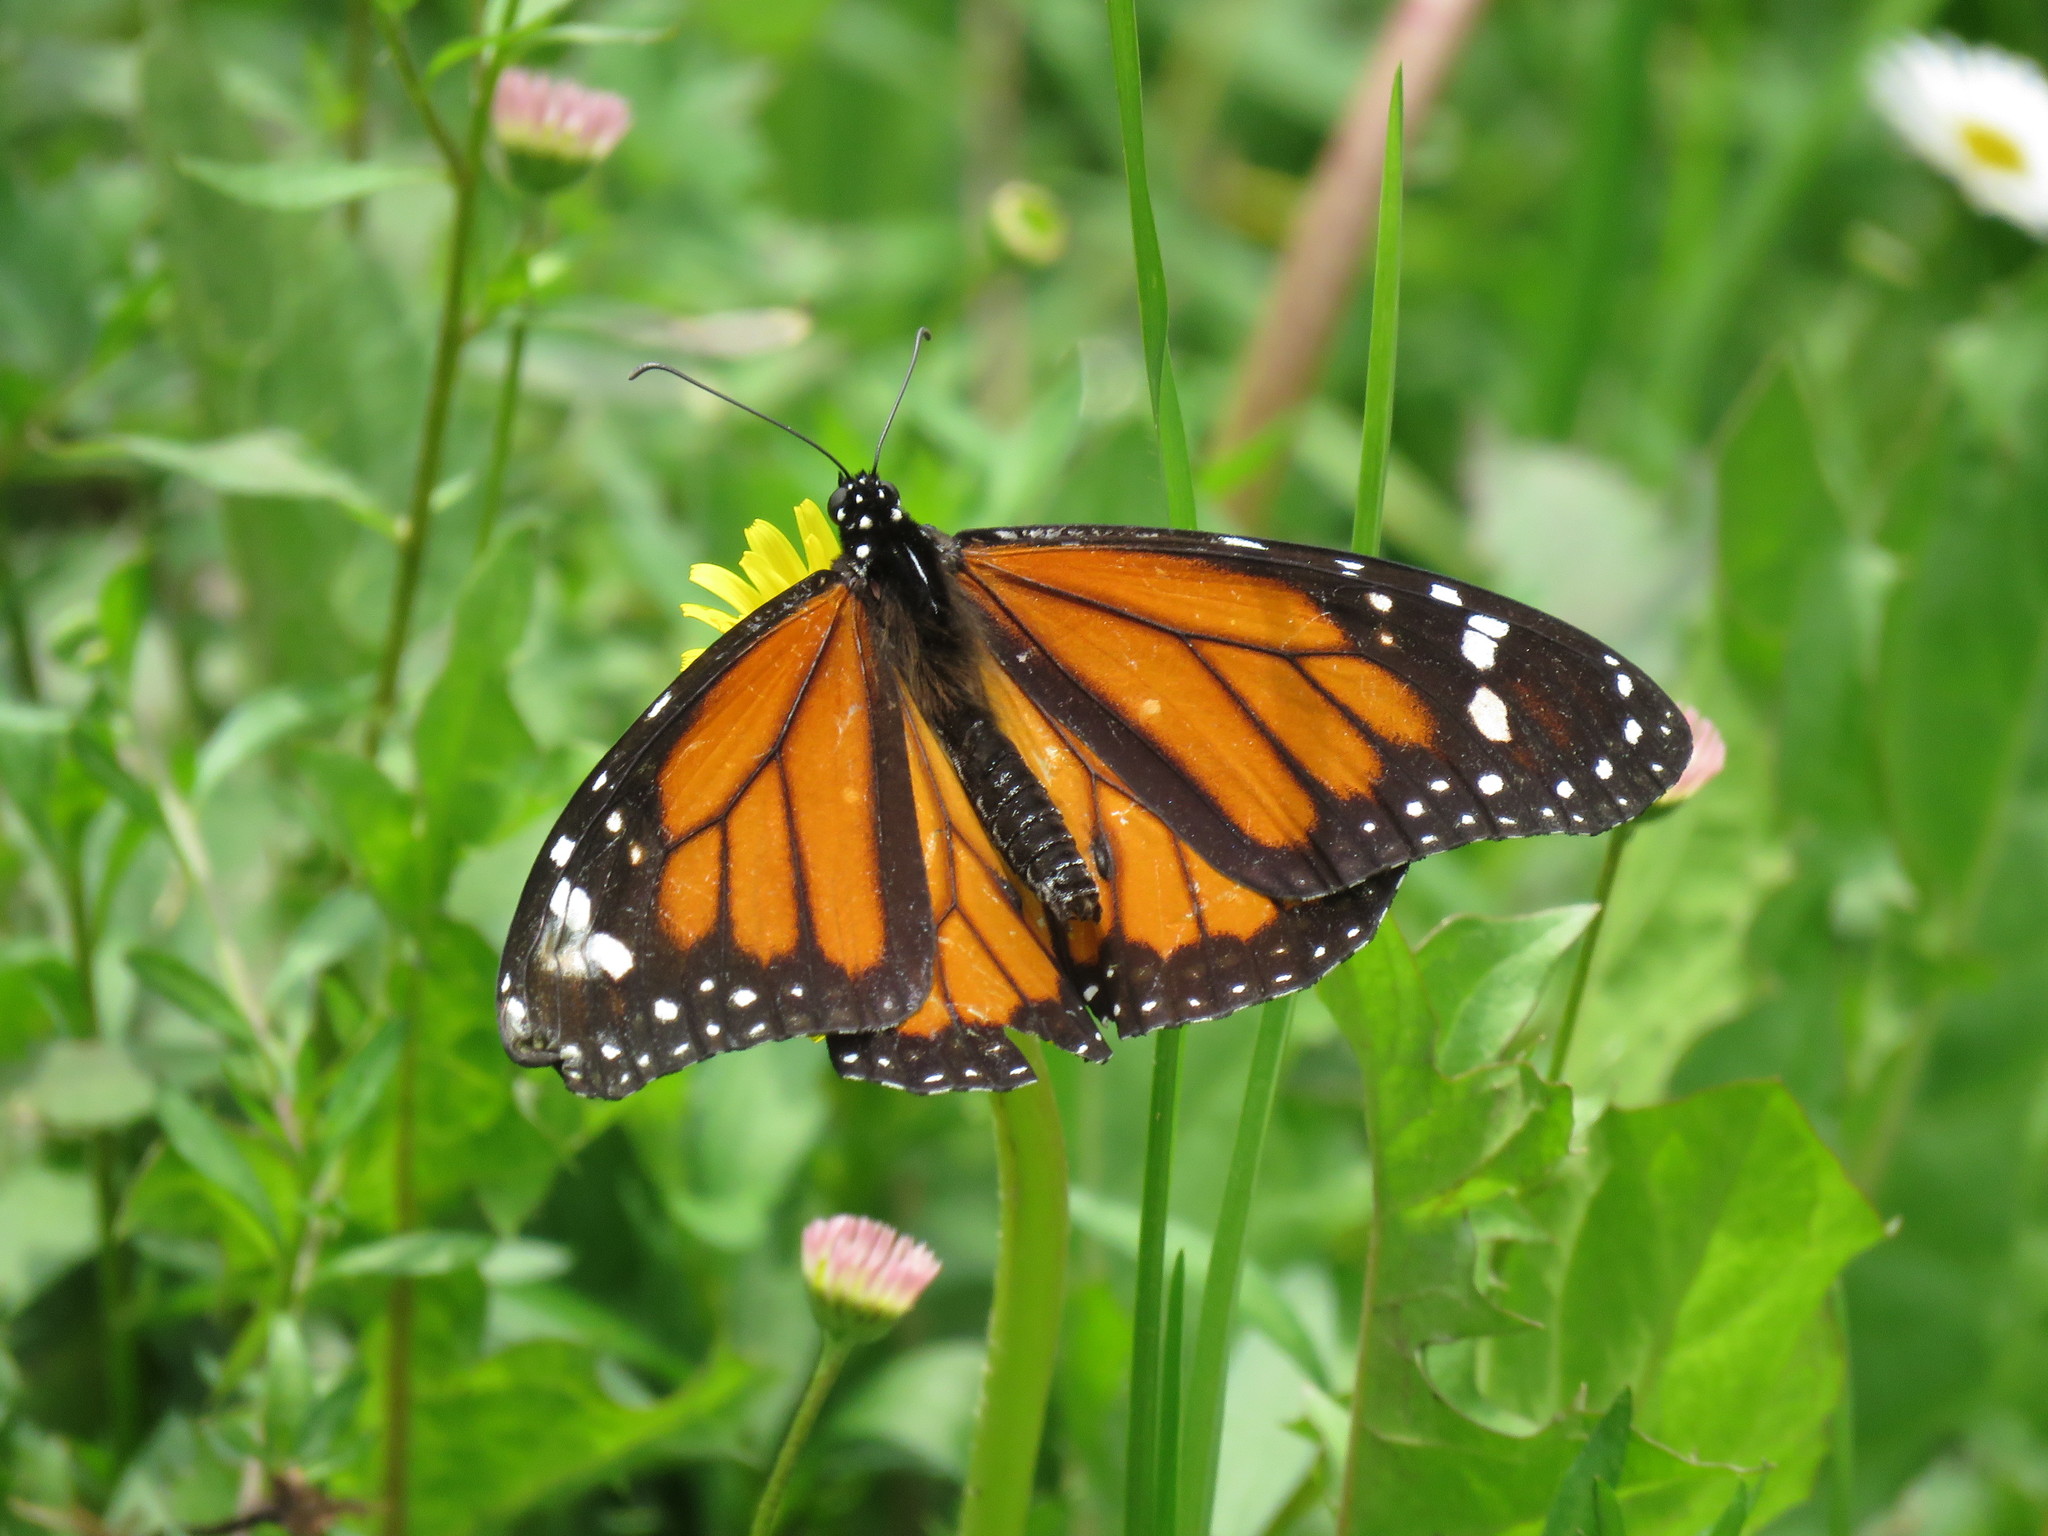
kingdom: Animalia
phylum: Arthropoda
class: Insecta
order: Lepidoptera
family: Nymphalidae
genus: Danaus
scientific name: Danaus plexippus
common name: Monarch
